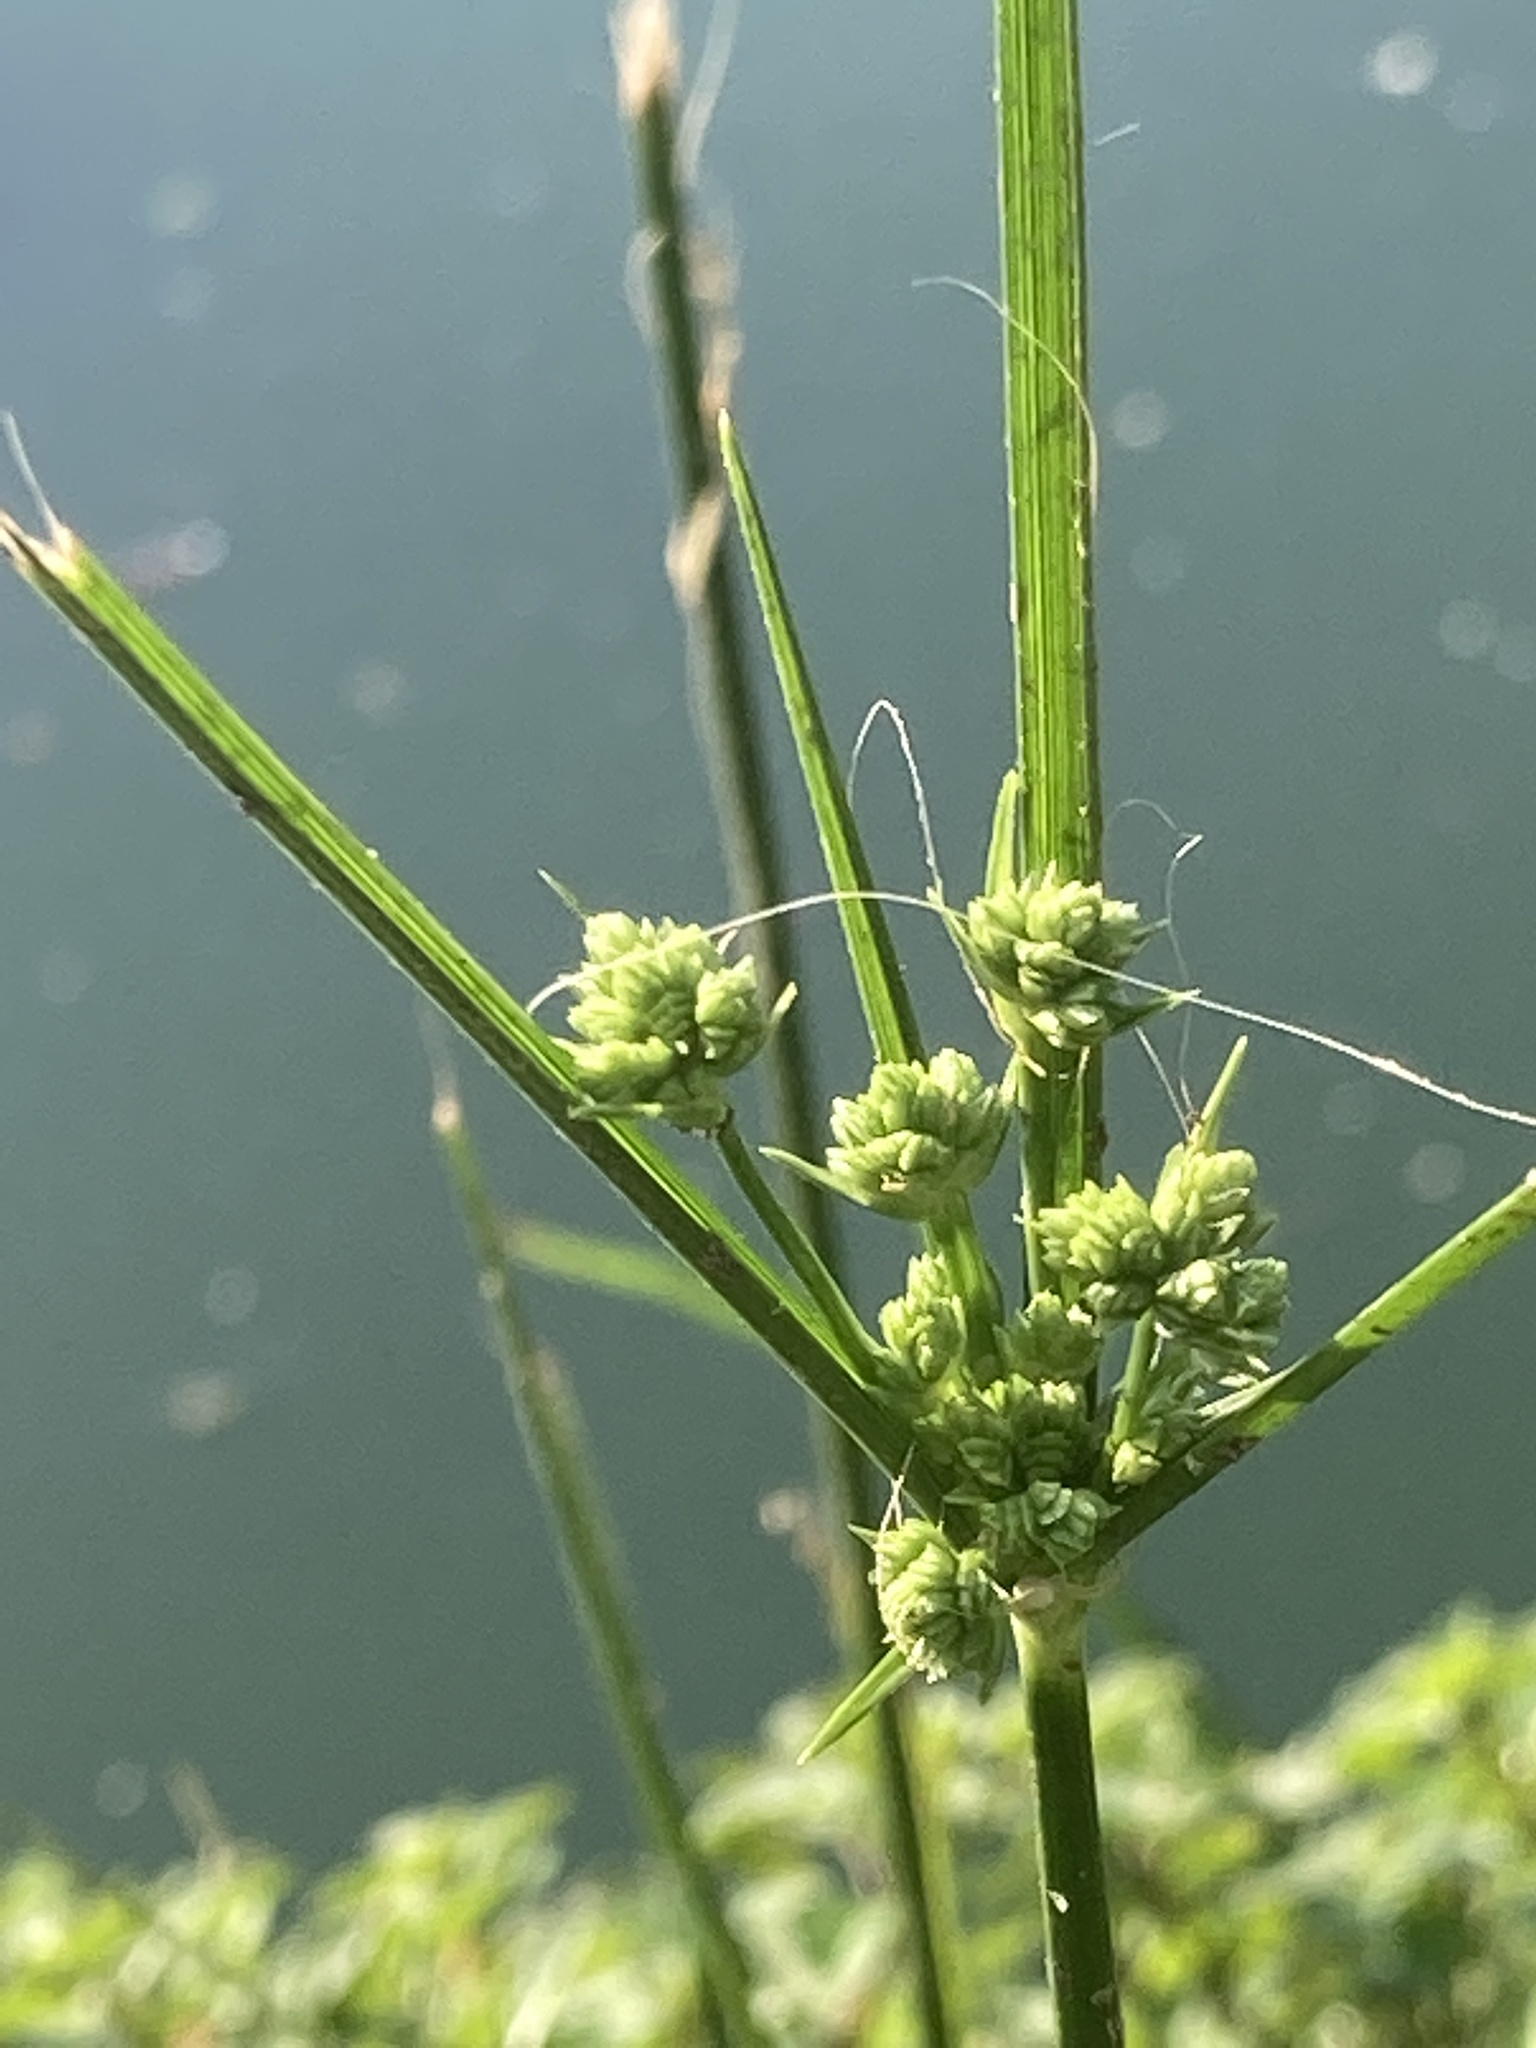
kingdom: Plantae
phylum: Tracheophyta
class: Liliopsida
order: Poales
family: Cyperaceae
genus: Cyperus
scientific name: Cyperus surinamensis
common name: Tropical flat sedge
